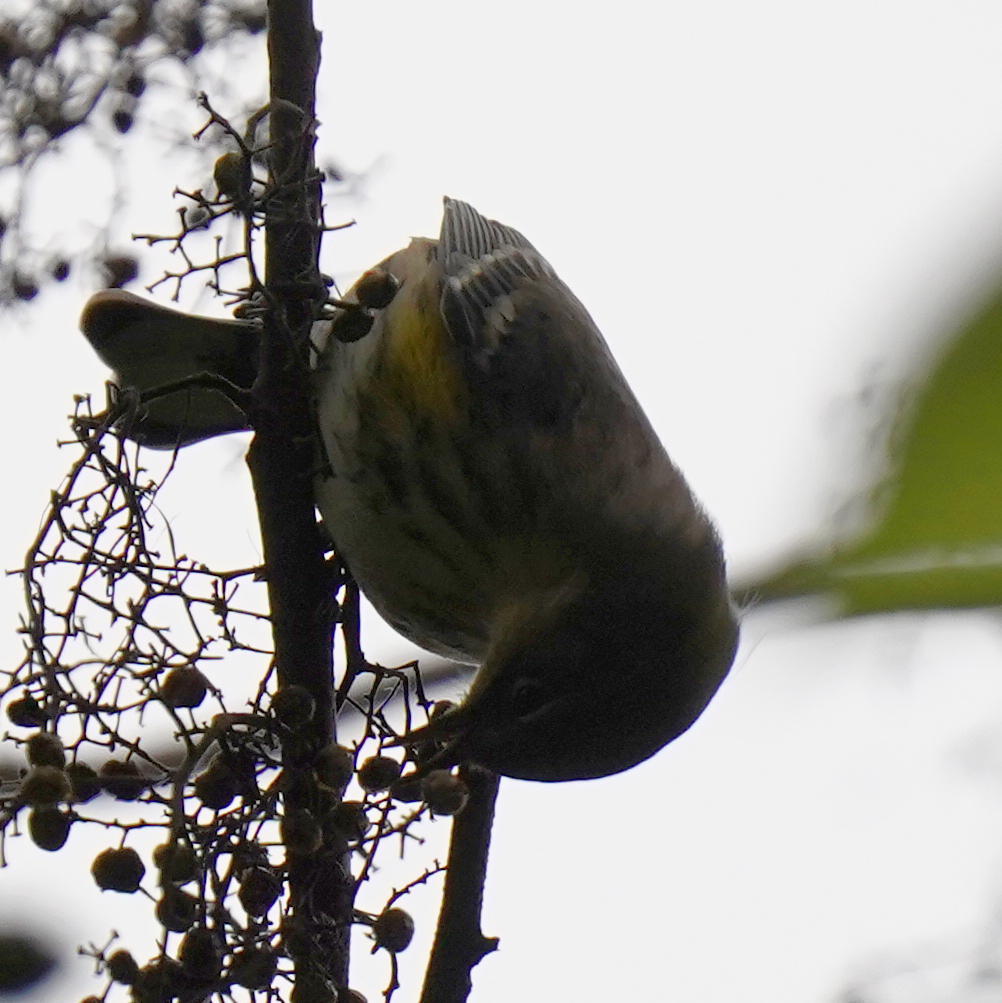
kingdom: Animalia
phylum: Chordata
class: Aves
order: Passeriformes
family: Parulidae
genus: Setophaga
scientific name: Setophaga coronata
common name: Myrtle warbler
